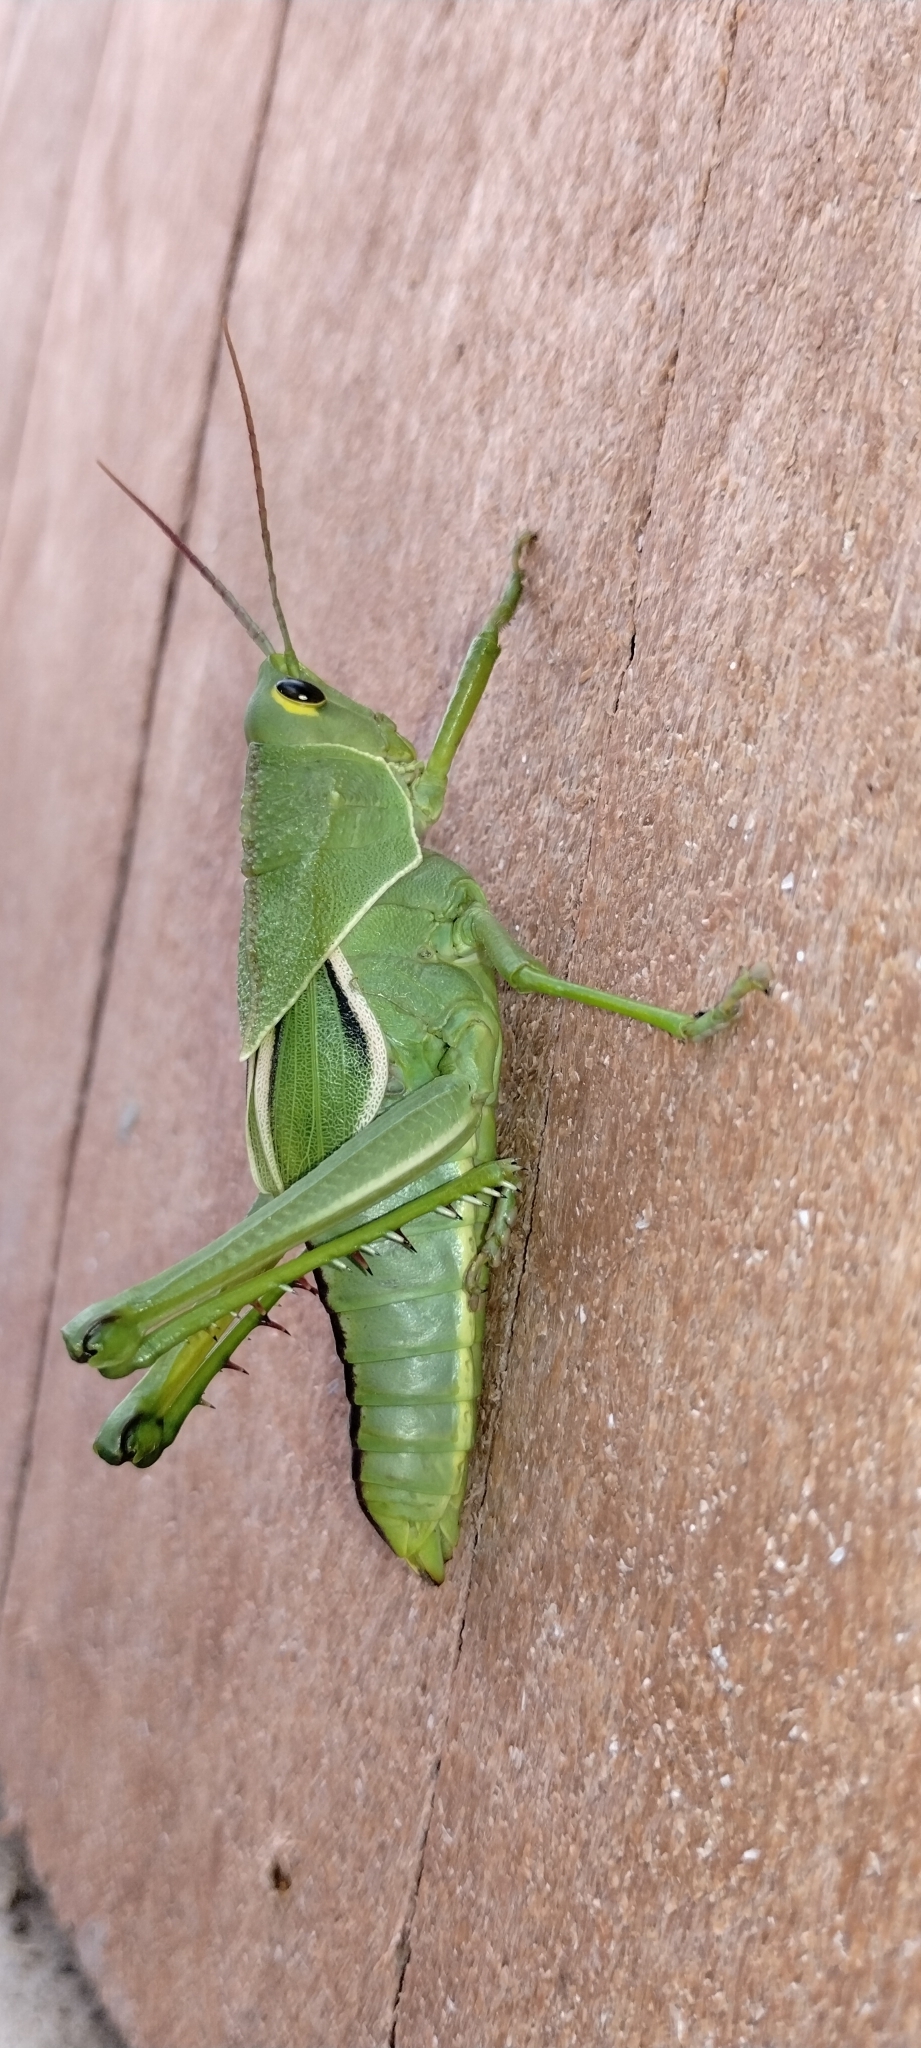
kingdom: Animalia
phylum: Arthropoda
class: Insecta
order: Orthoptera
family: Romaleidae
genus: Staleochlora
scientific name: Staleochlora viridicata
